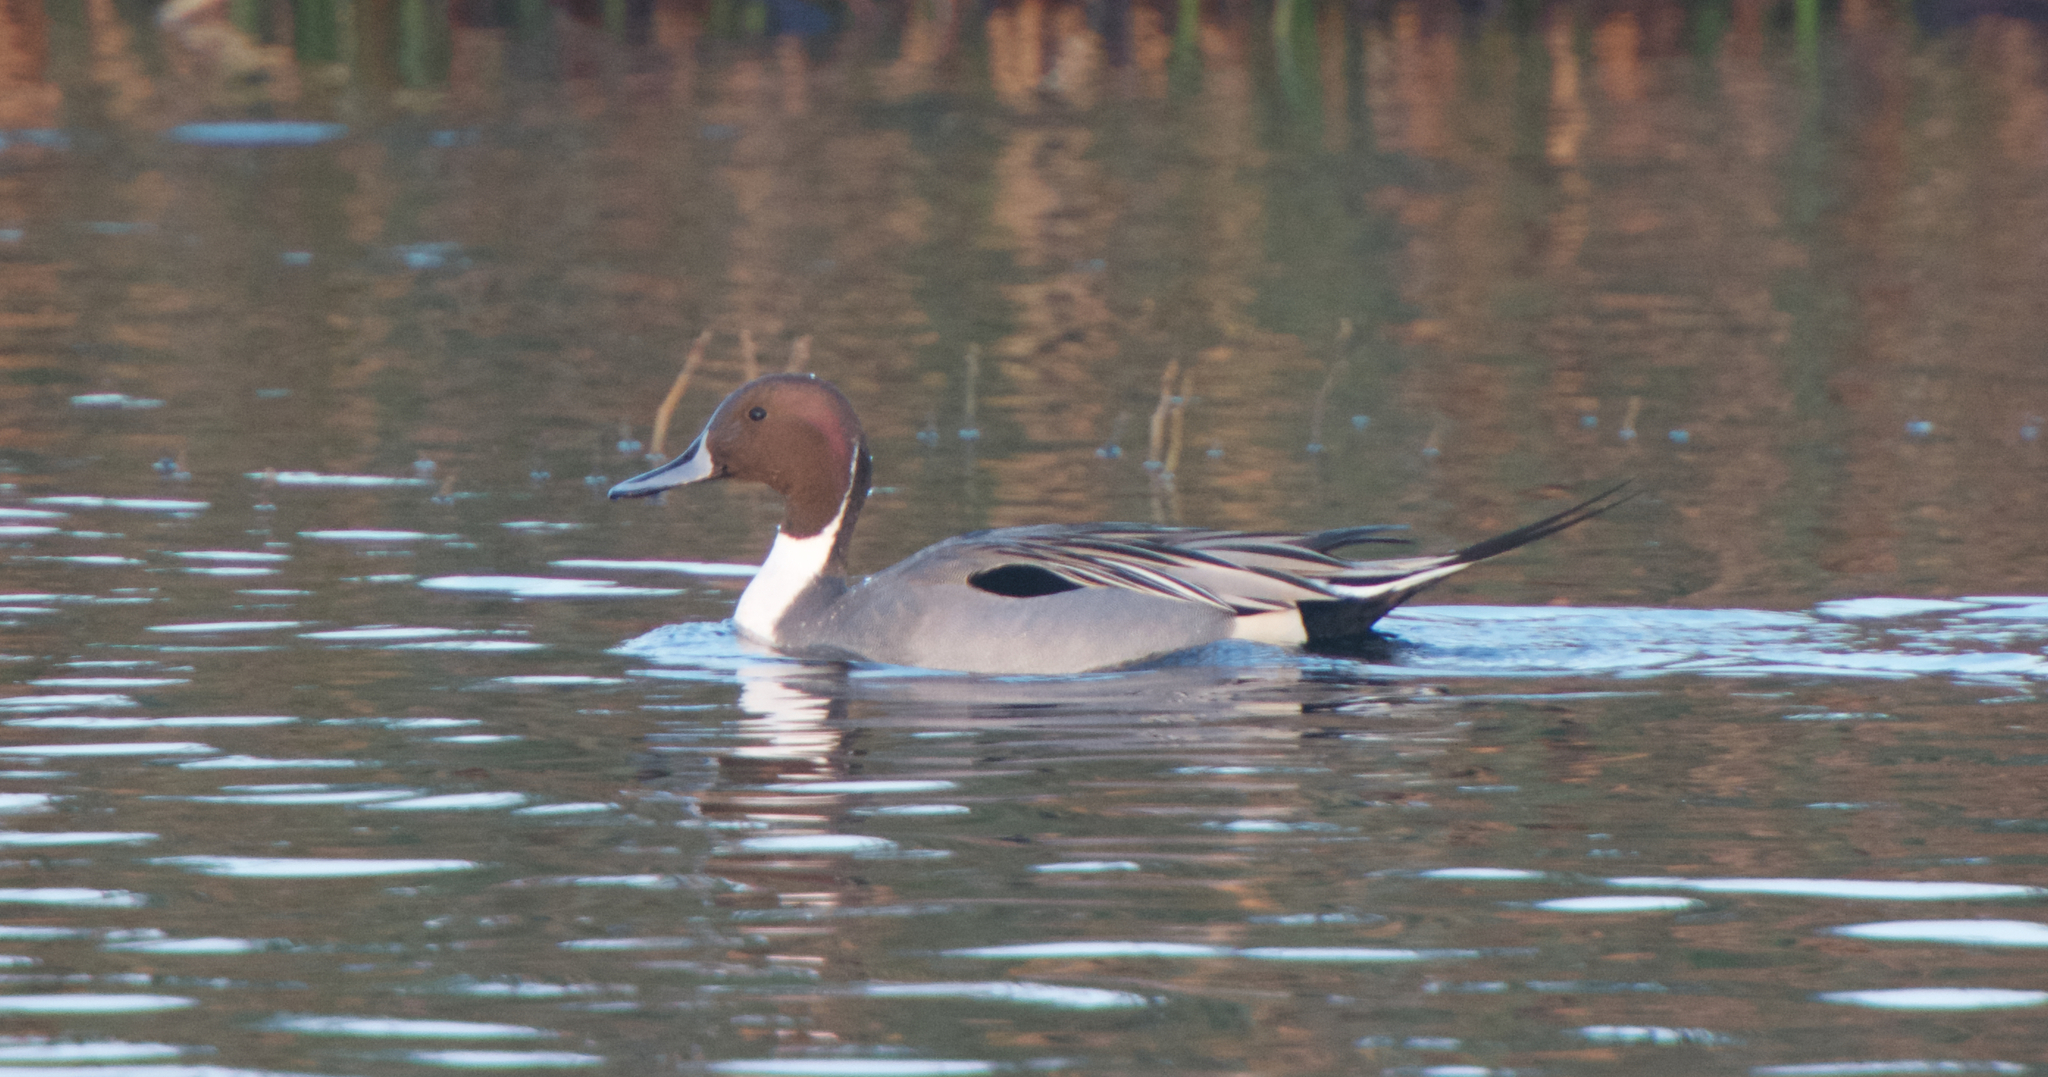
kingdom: Animalia
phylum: Chordata
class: Aves
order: Anseriformes
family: Anatidae
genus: Anas
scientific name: Anas acuta
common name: Northern pintail
